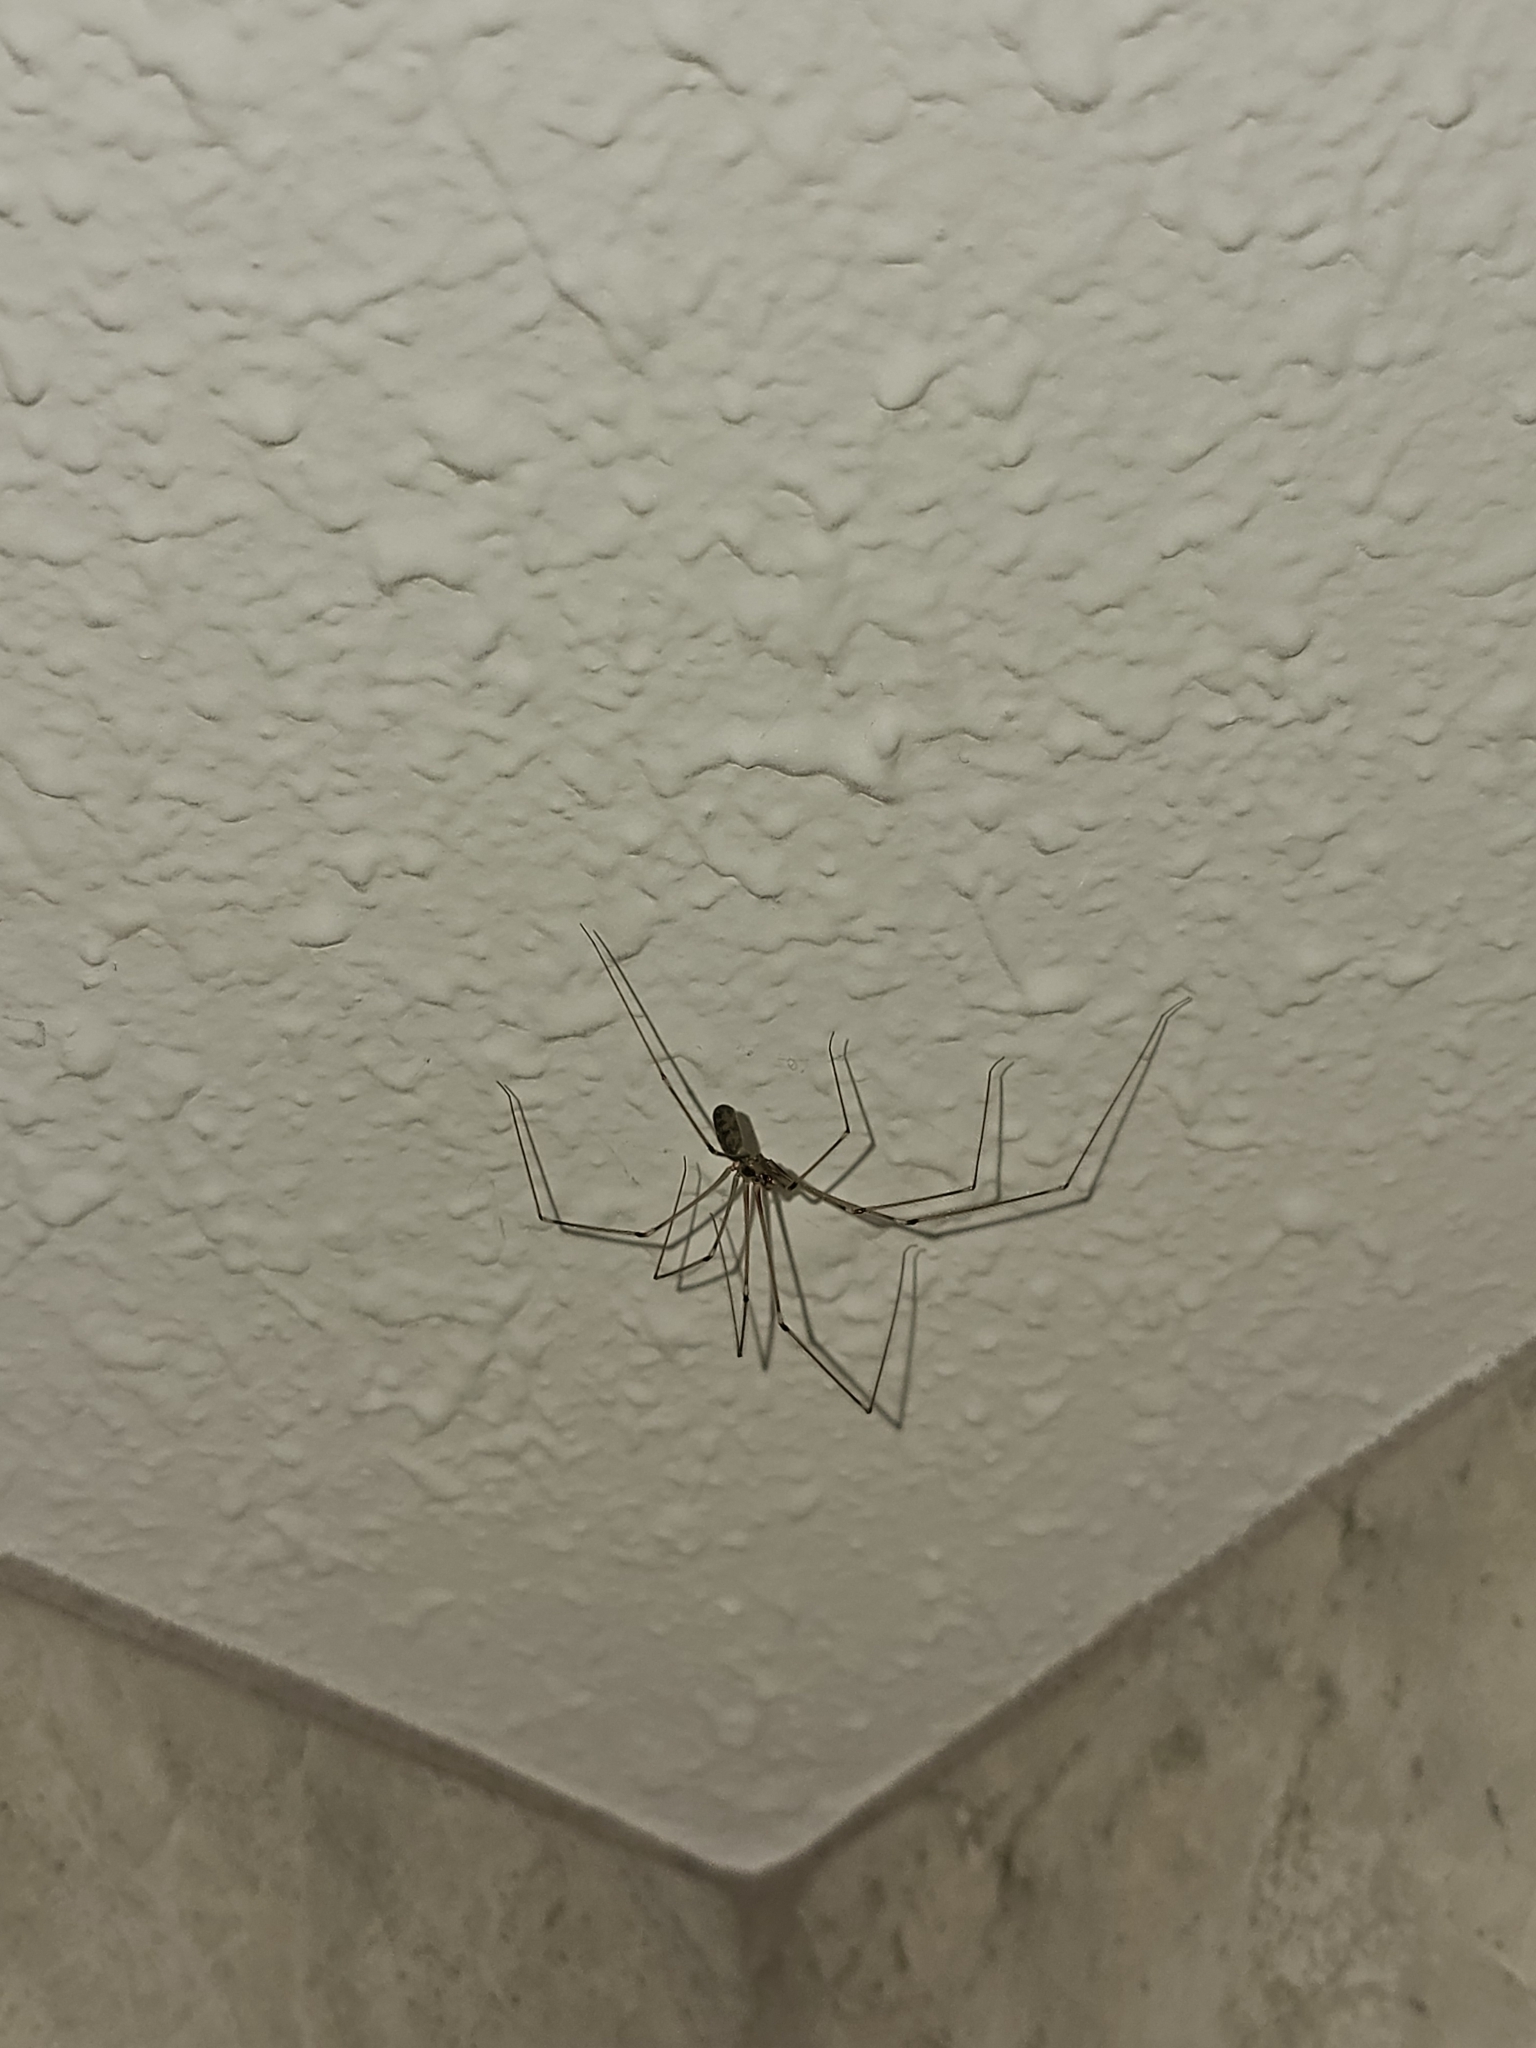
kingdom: Animalia
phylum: Arthropoda
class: Arachnida
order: Araneae
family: Pholcidae
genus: Pholcus
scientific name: Pholcus phalangioides
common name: Longbodied cellar spider
